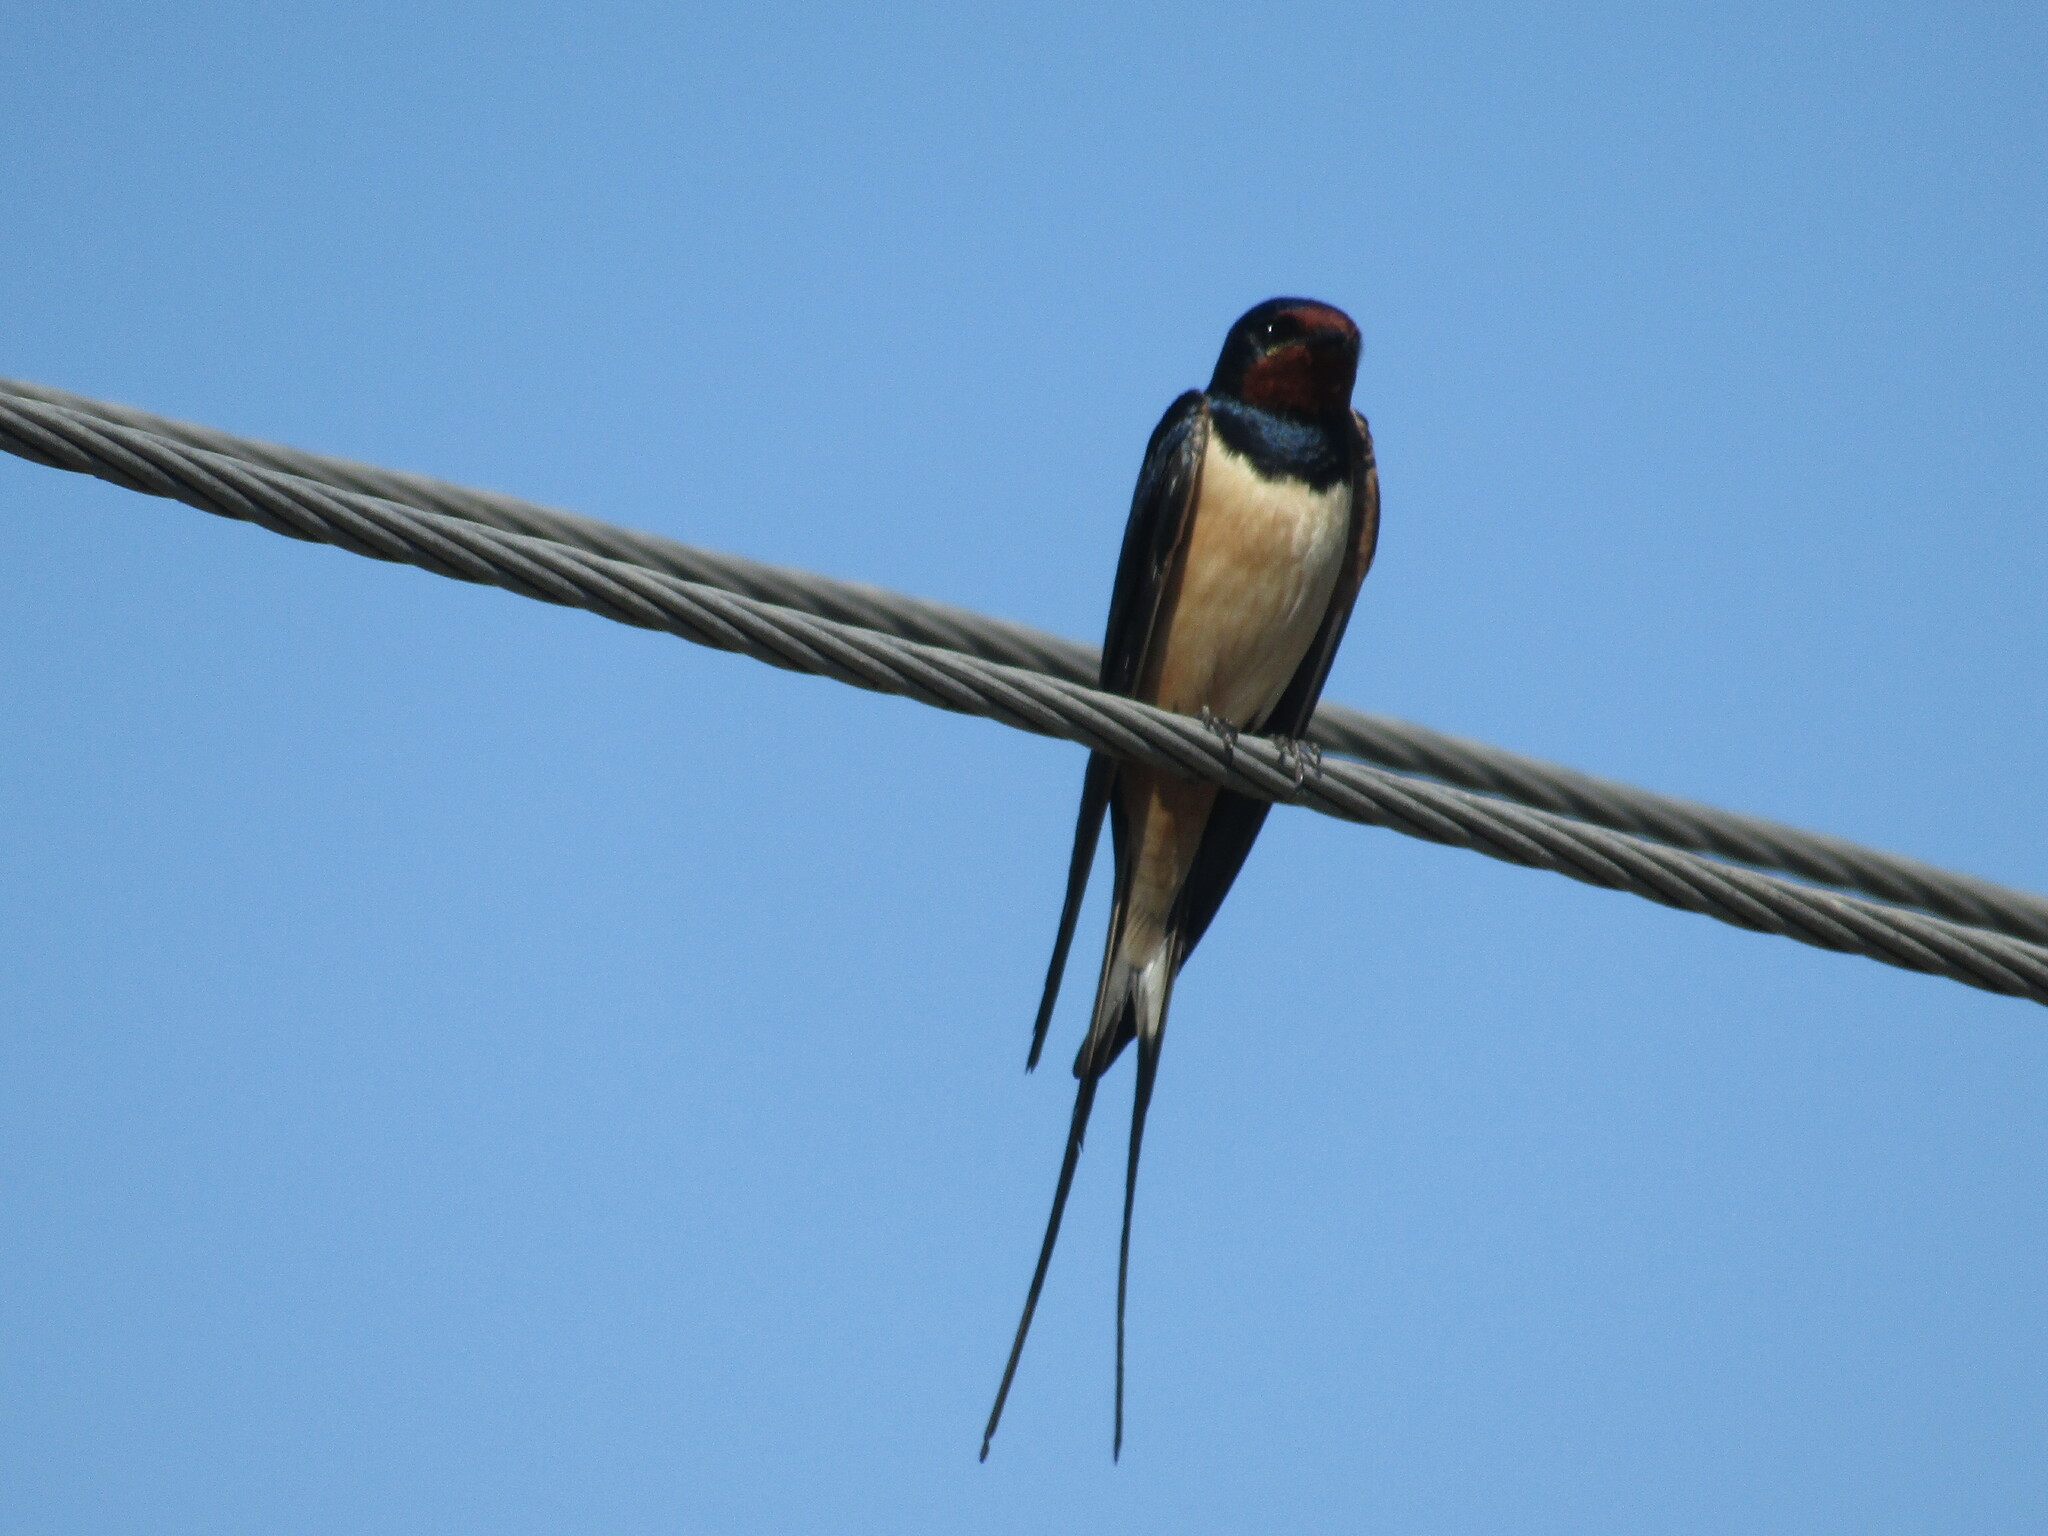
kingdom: Animalia
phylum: Chordata
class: Aves
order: Passeriformes
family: Hirundinidae
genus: Hirundo
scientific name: Hirundo rustica
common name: Barn swallow
